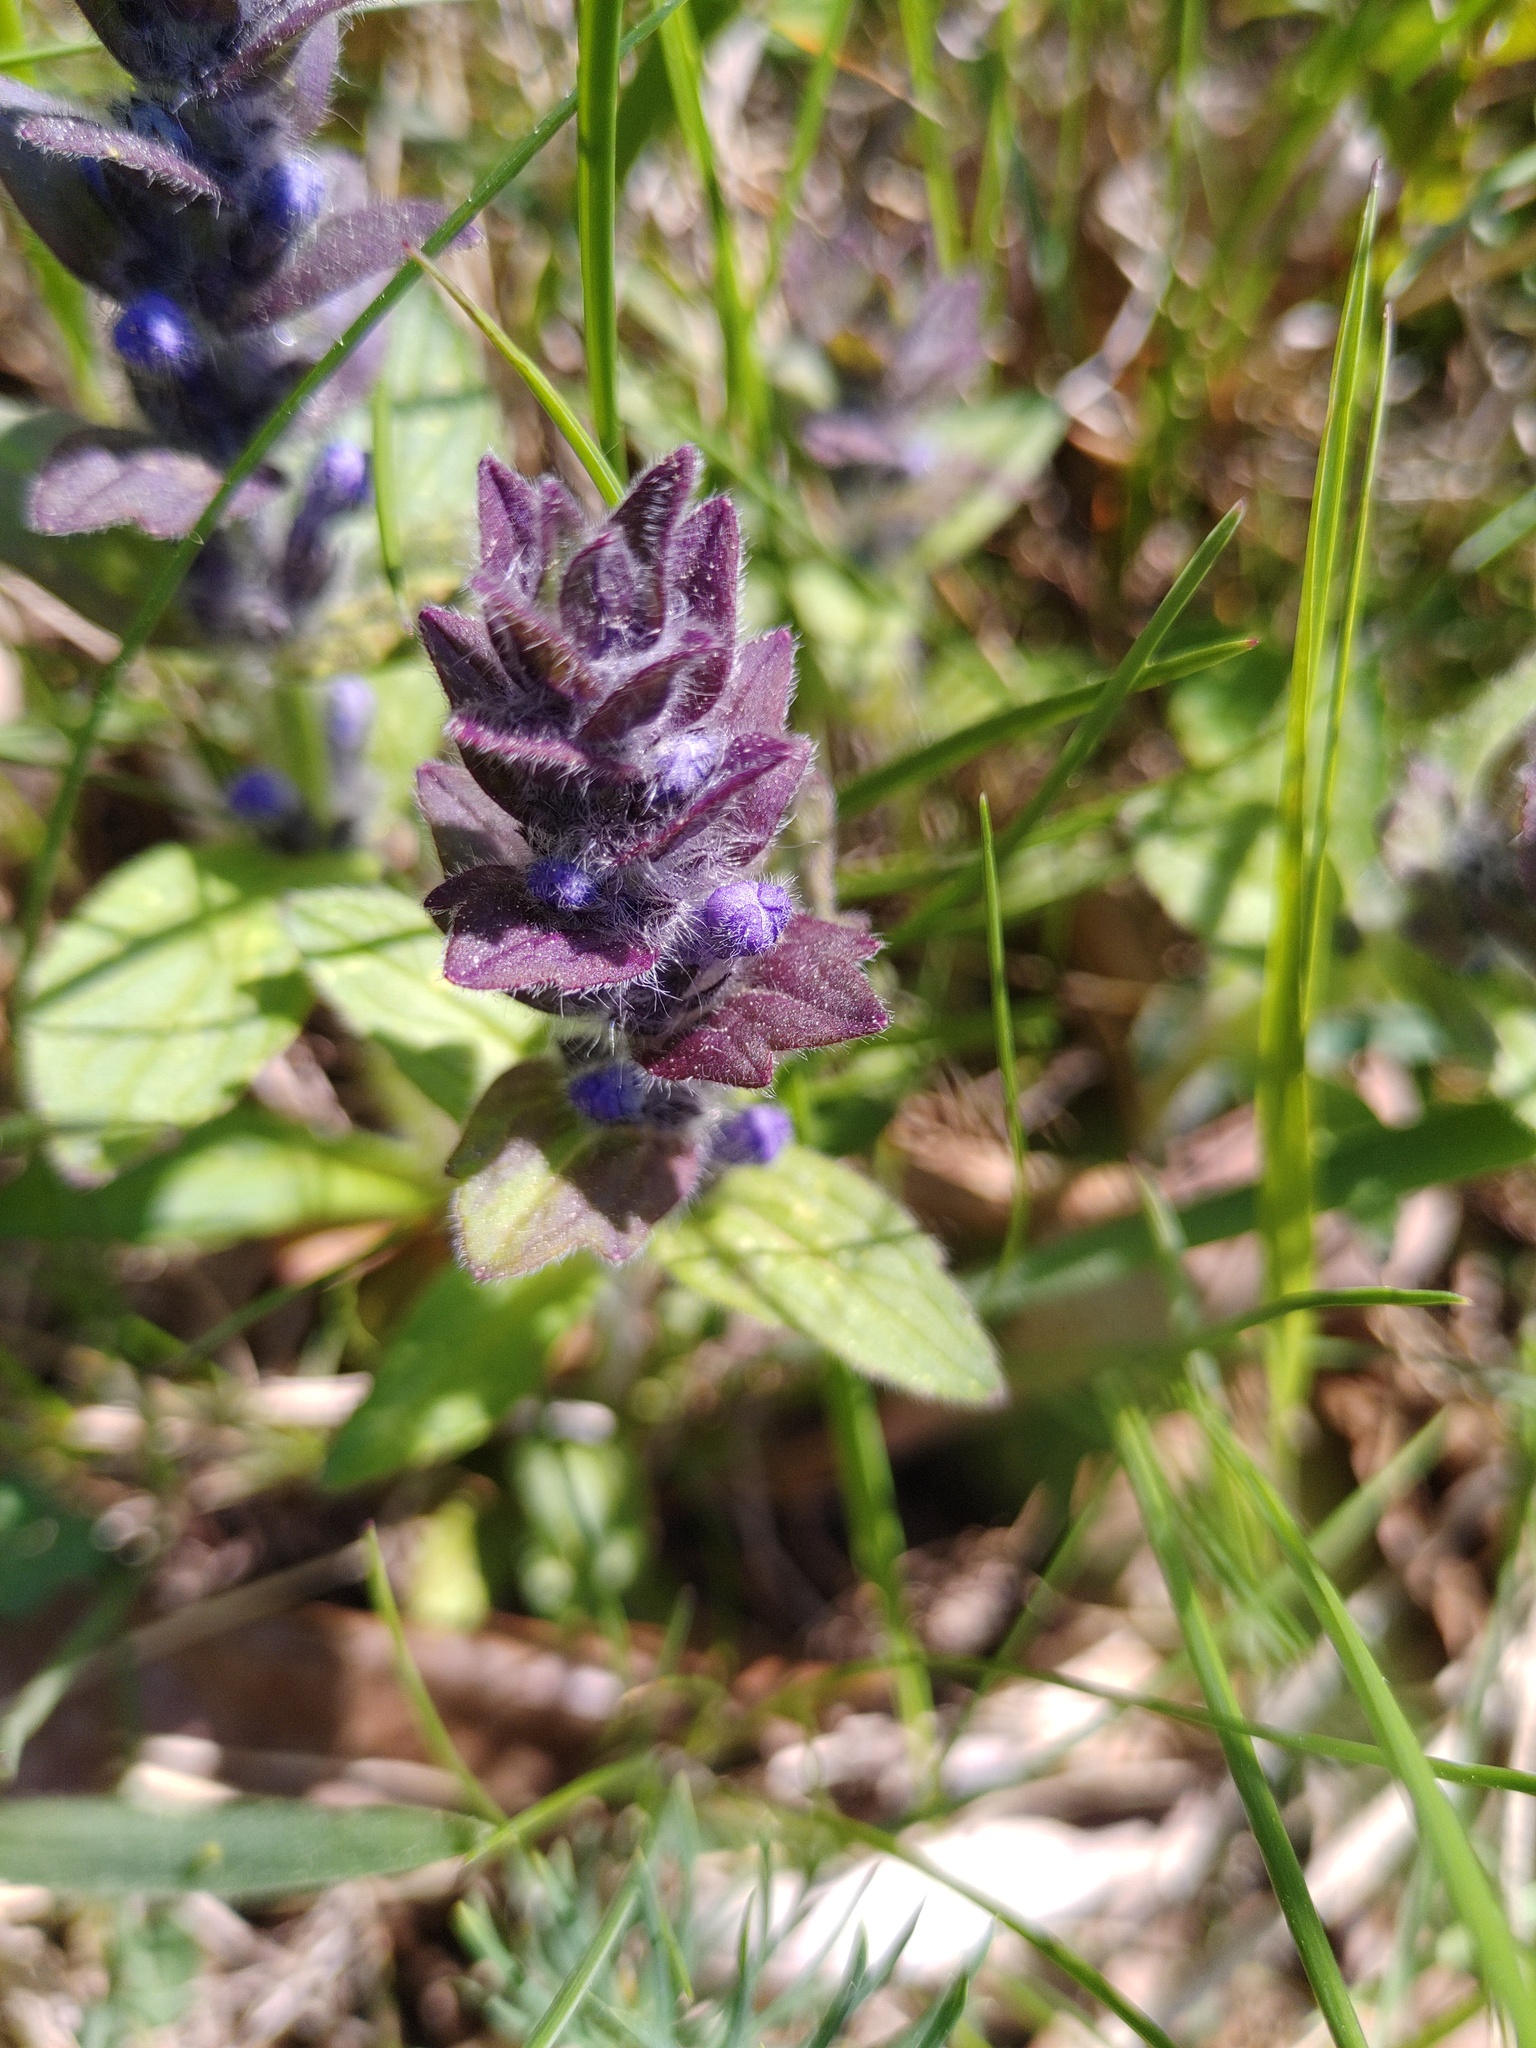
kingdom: Plantae
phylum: Tracheophyta
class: Magnoliopsida
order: Lamiales
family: Lamiaceae
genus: Ajuga
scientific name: Ajuga genevensis
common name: Blue bugle
